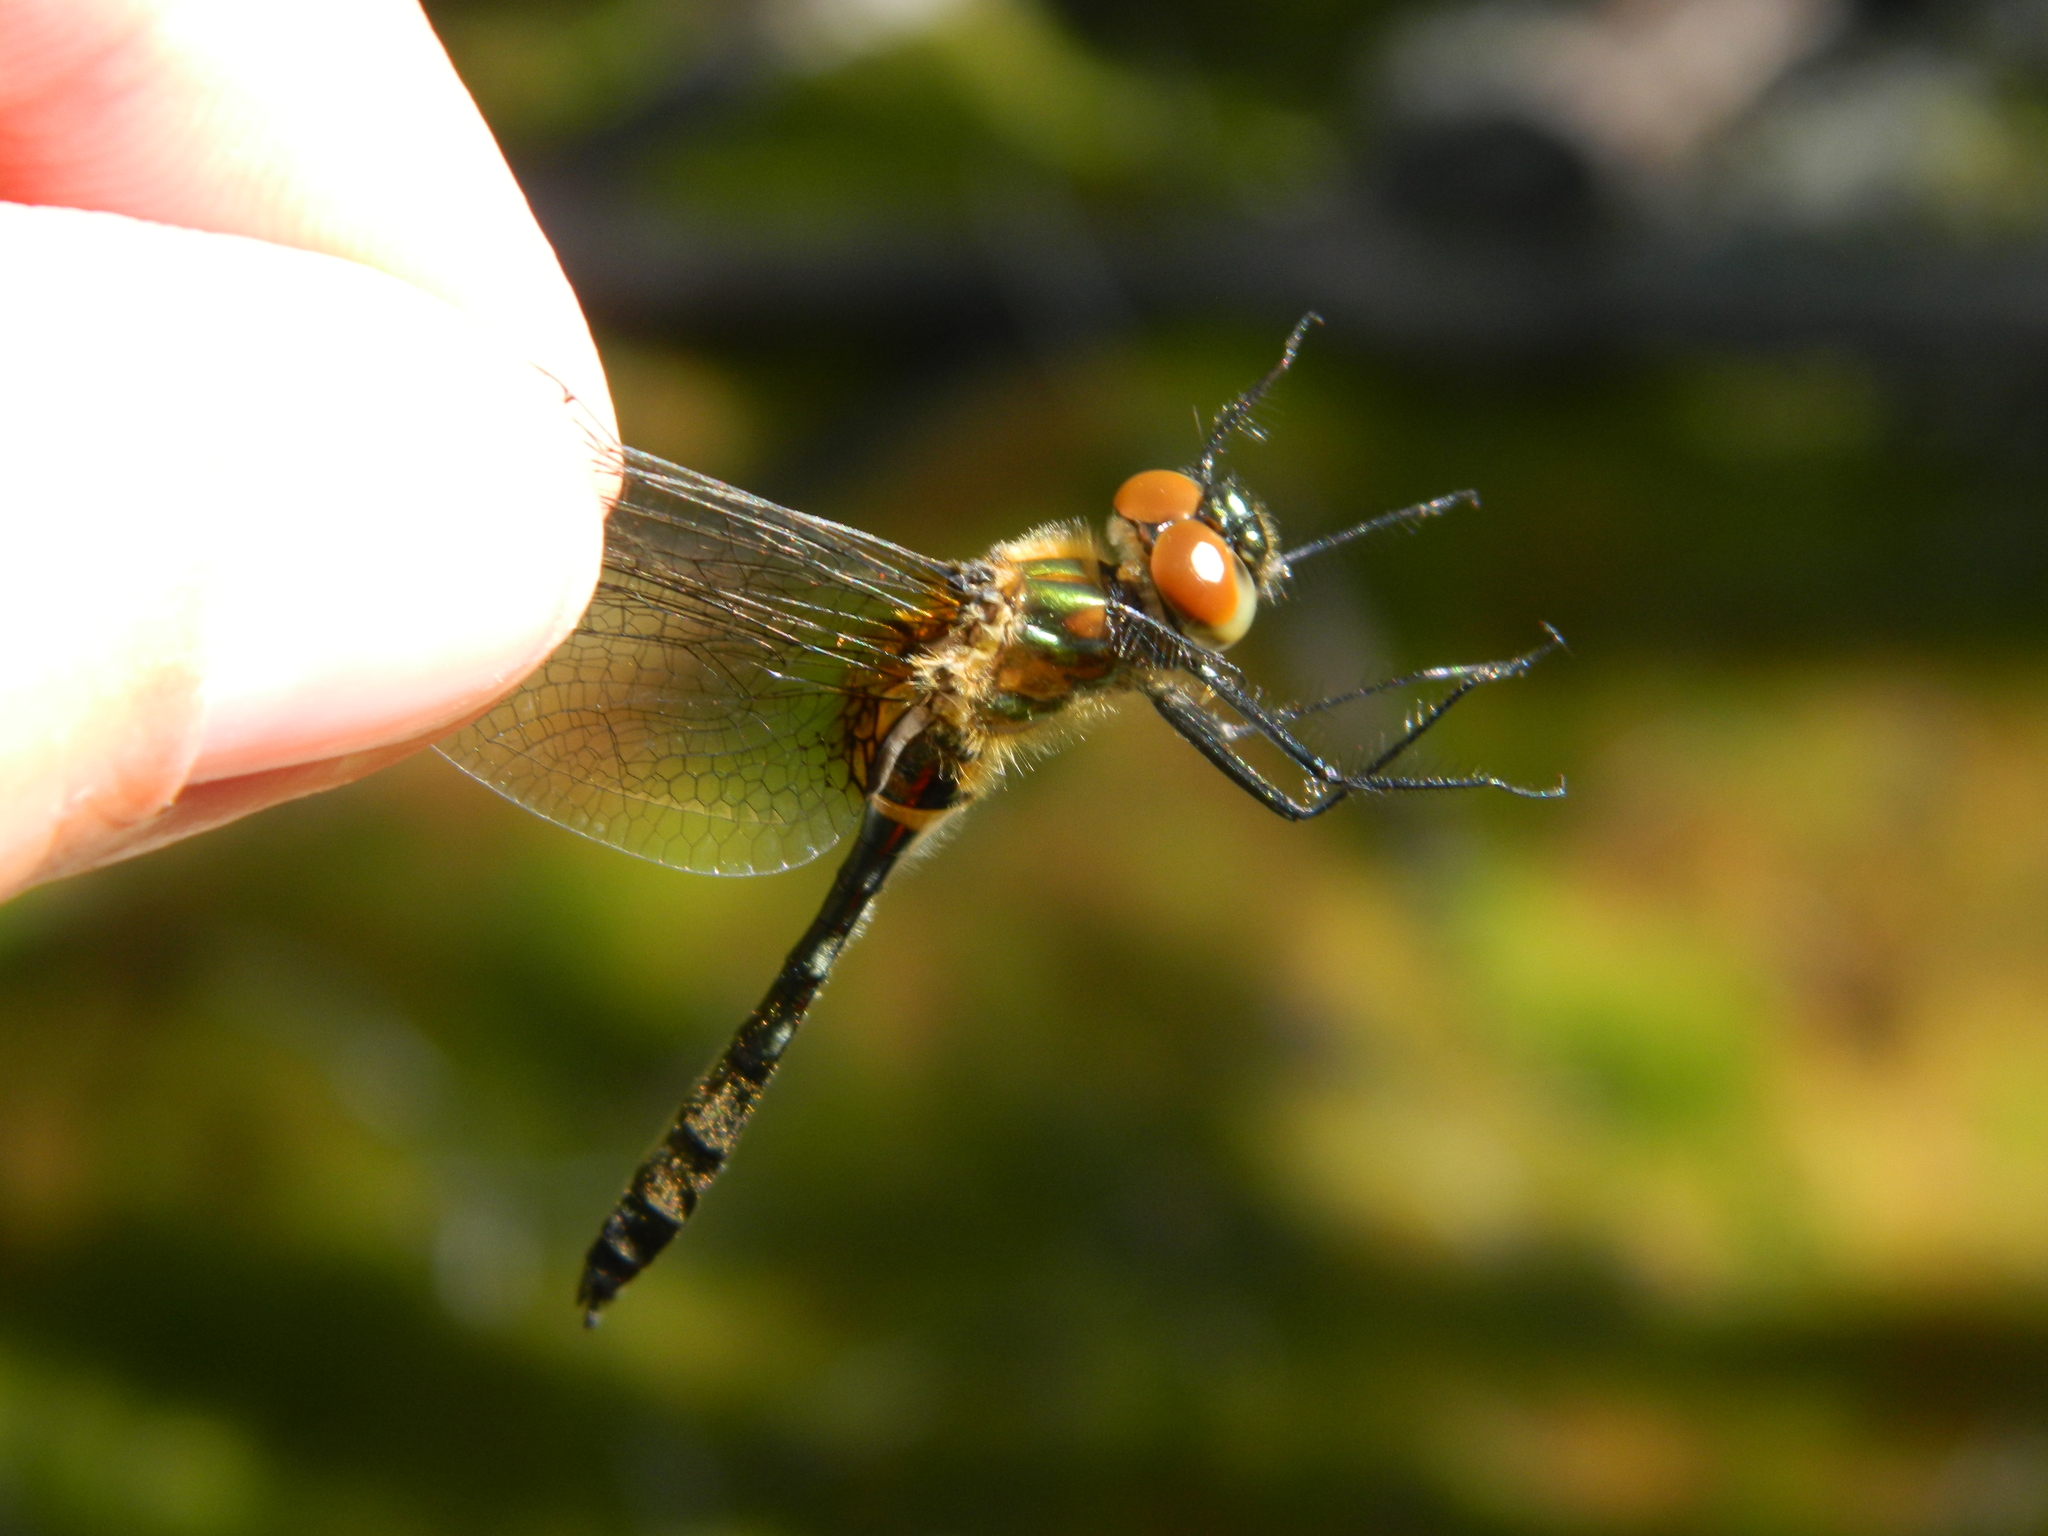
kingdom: Animalia
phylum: Arthropoda
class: Insecta
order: Odonata
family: Corduliidae
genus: Dorocordulia
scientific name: Dorocordulia libera
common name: Racket-tailed emerald
